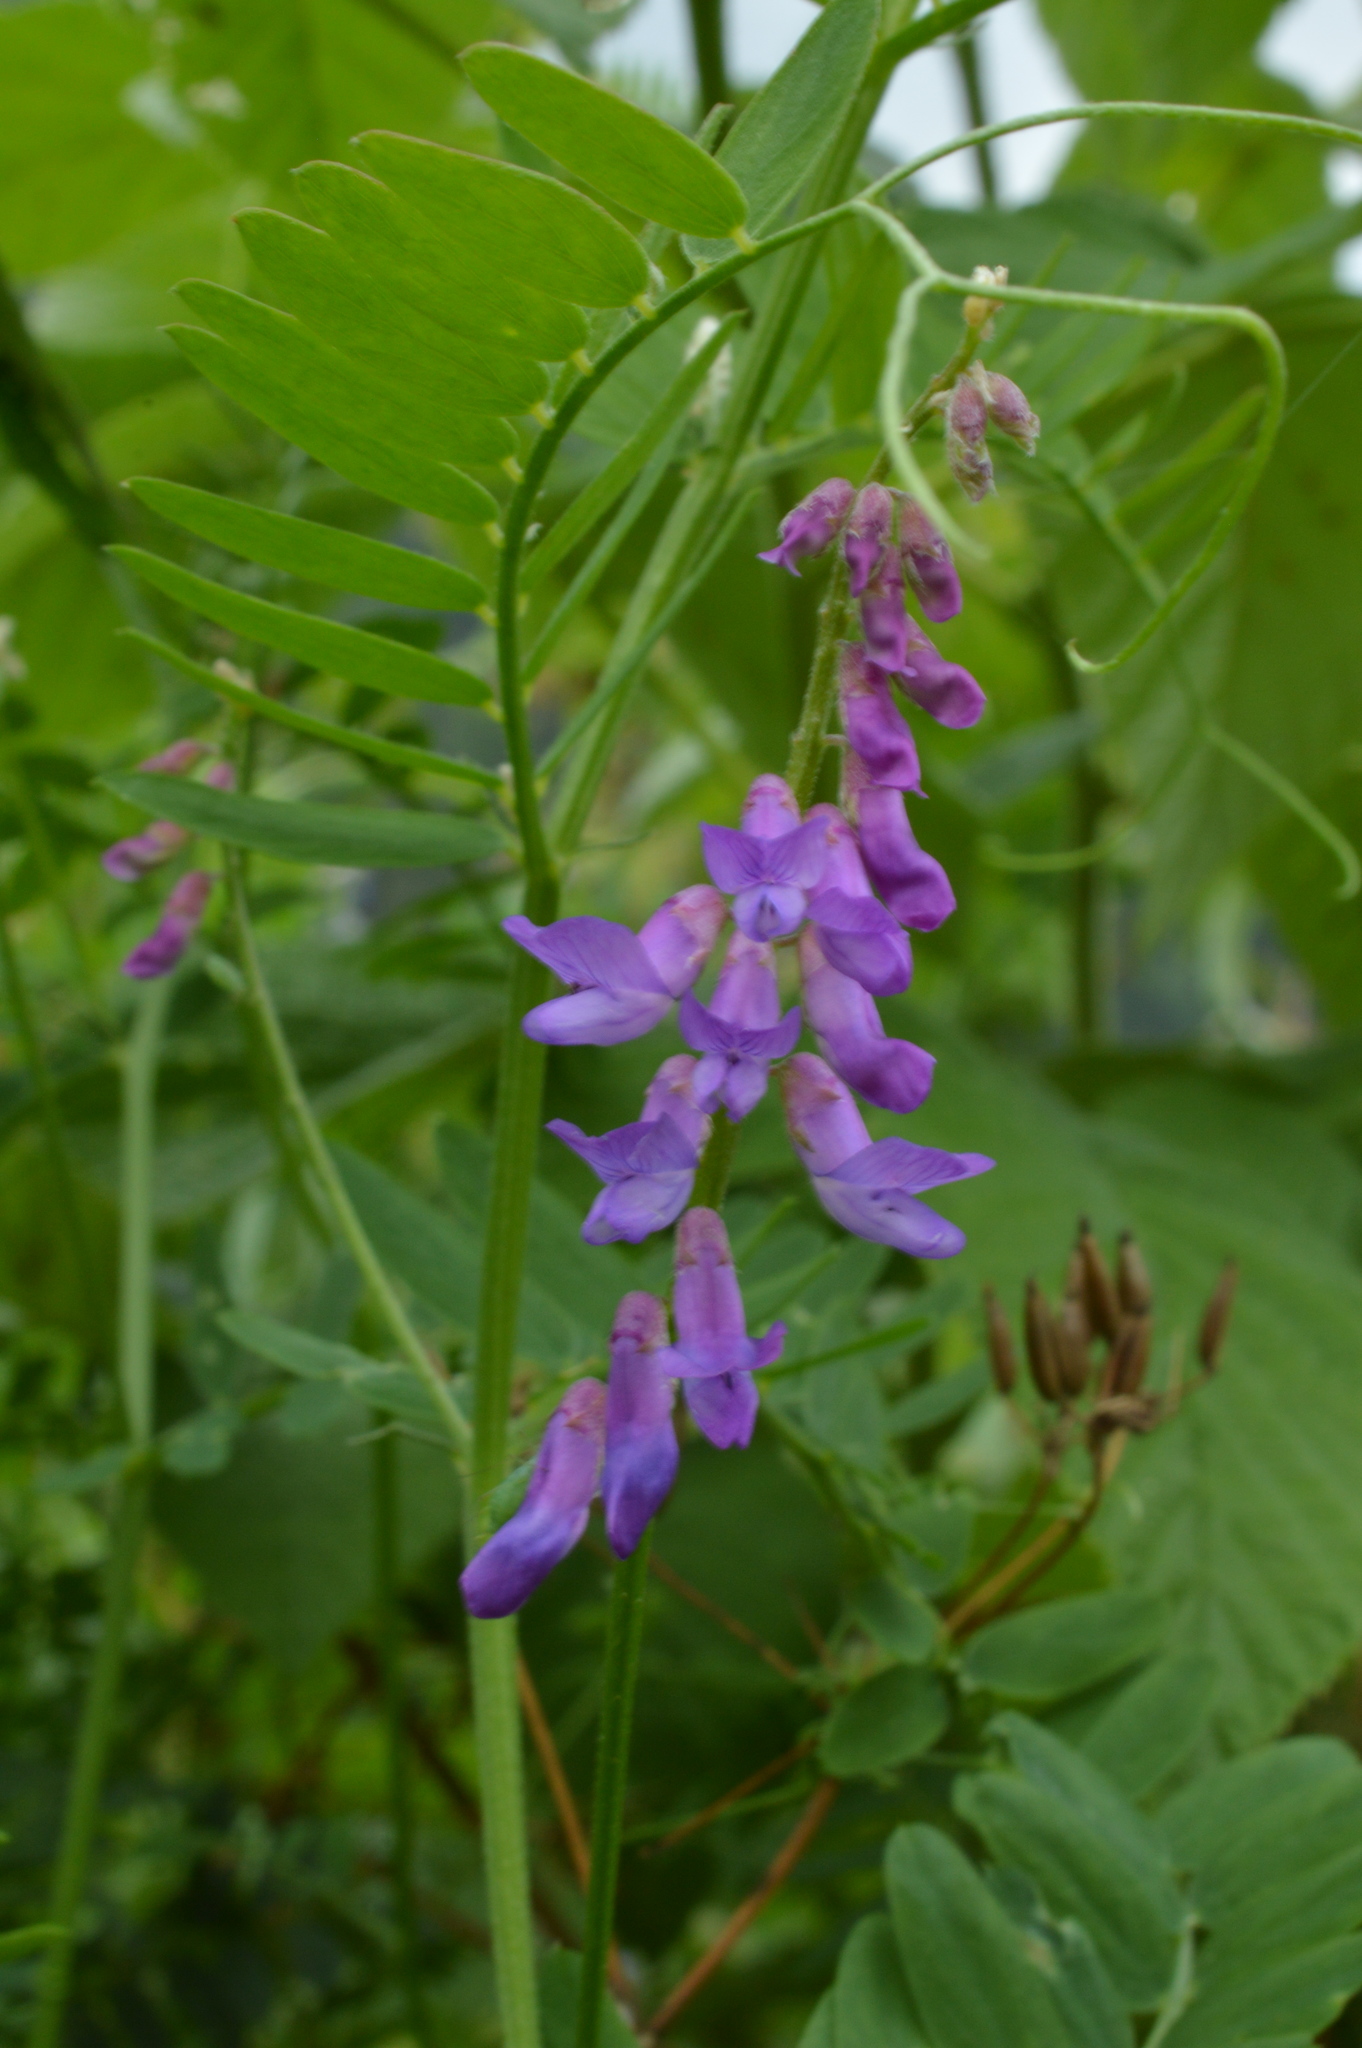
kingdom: Plantae
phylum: Tracheophyta
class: Magnoliopsida
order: Fabales
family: Fabaceae
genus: Vicia
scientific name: Vicia cracca
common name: Bird vetch
